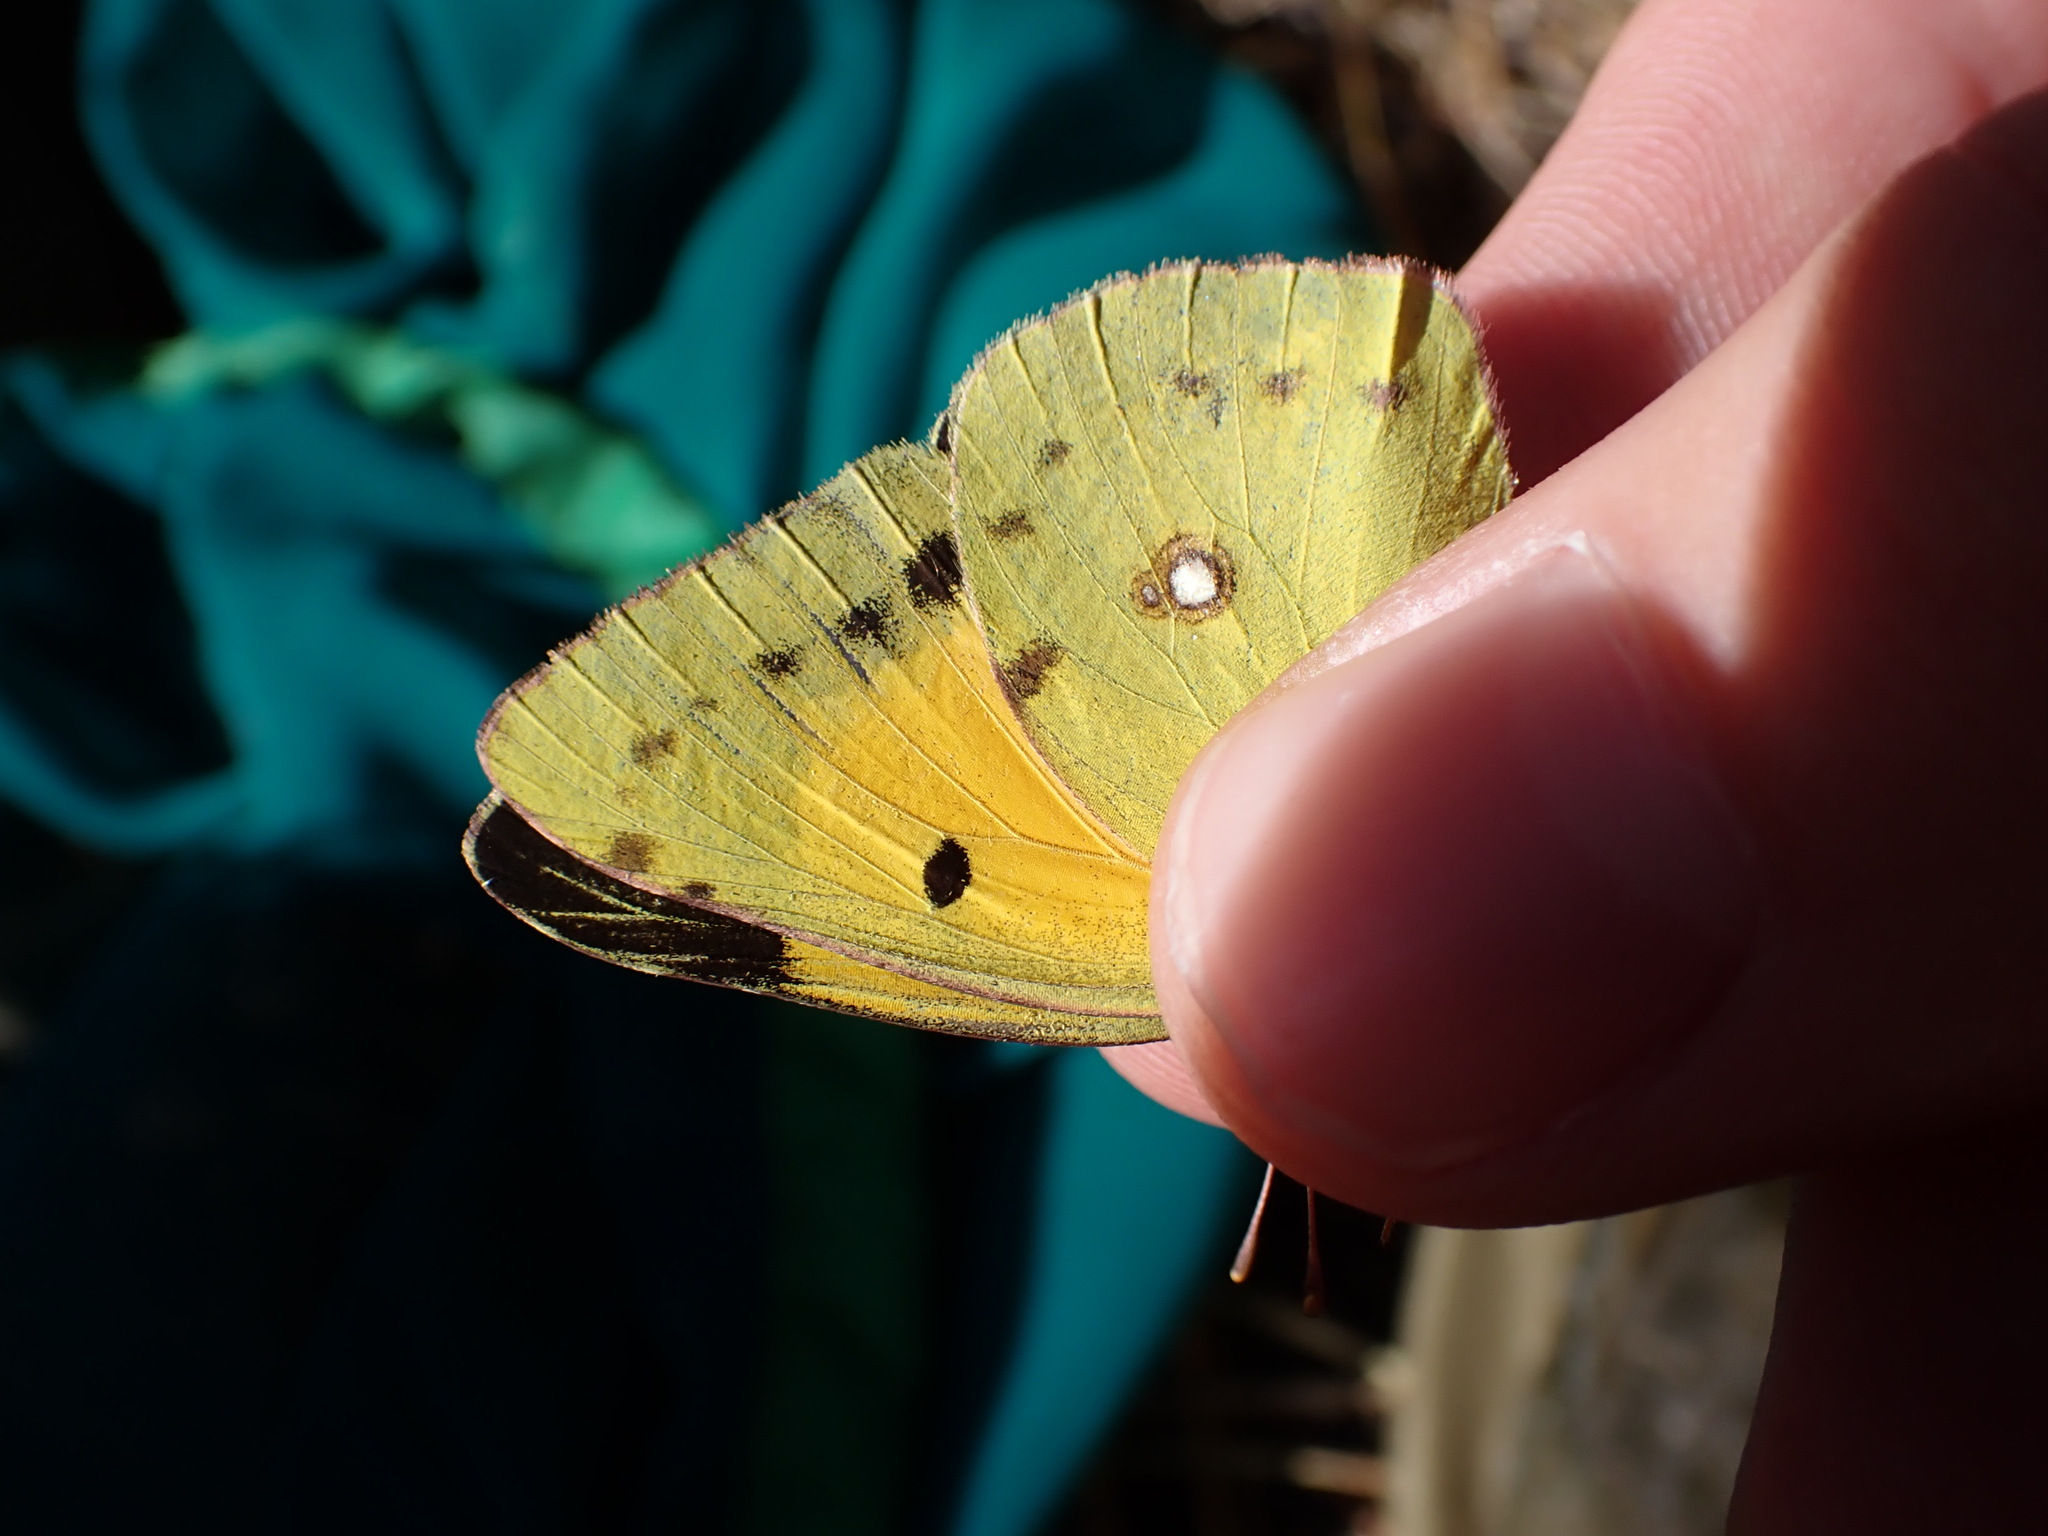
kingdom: Animalia
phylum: Arthropoda
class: Insecta
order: Lepidoptera
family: Pieridae
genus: Colias
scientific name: Colias croceus
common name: Clouded yellow
